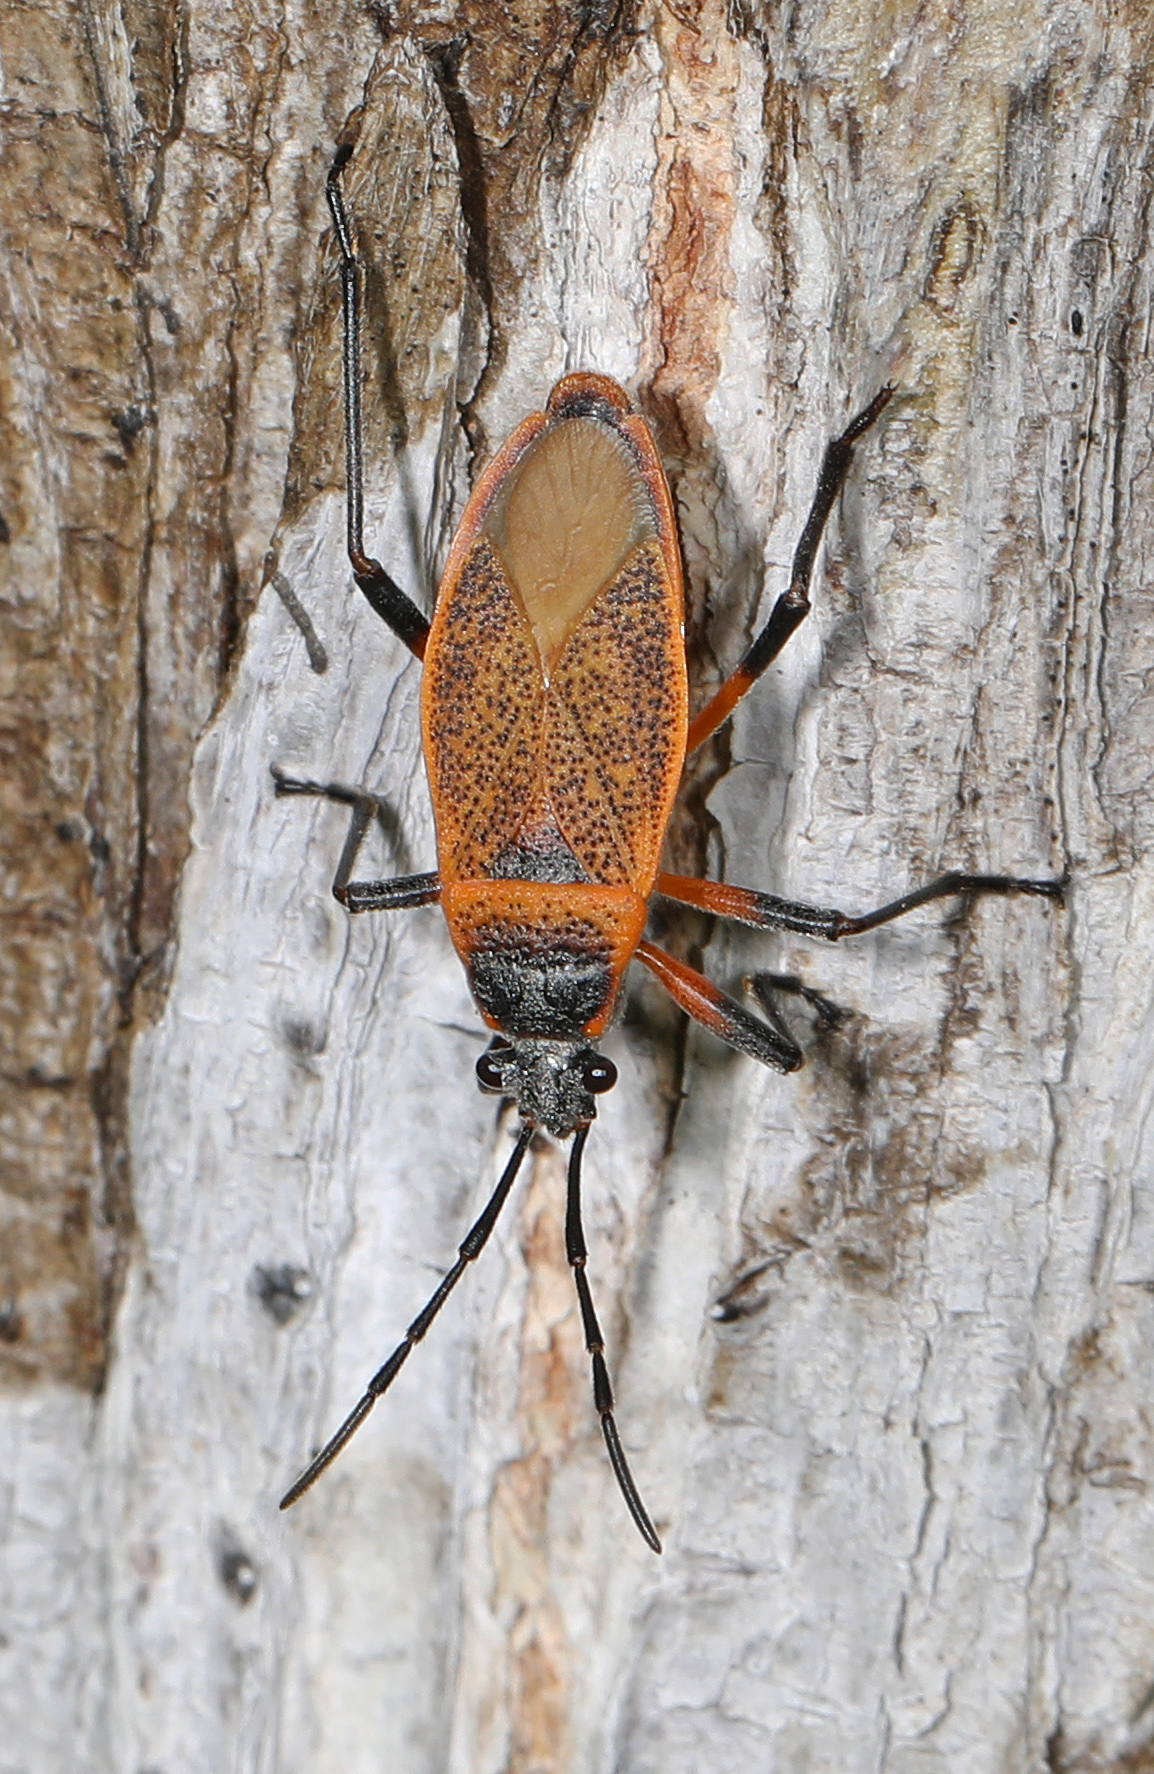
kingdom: Animalia
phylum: Arthropoda
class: Insecta
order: Hemiptera
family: Largidae
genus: Largus
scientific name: Largus davisi
